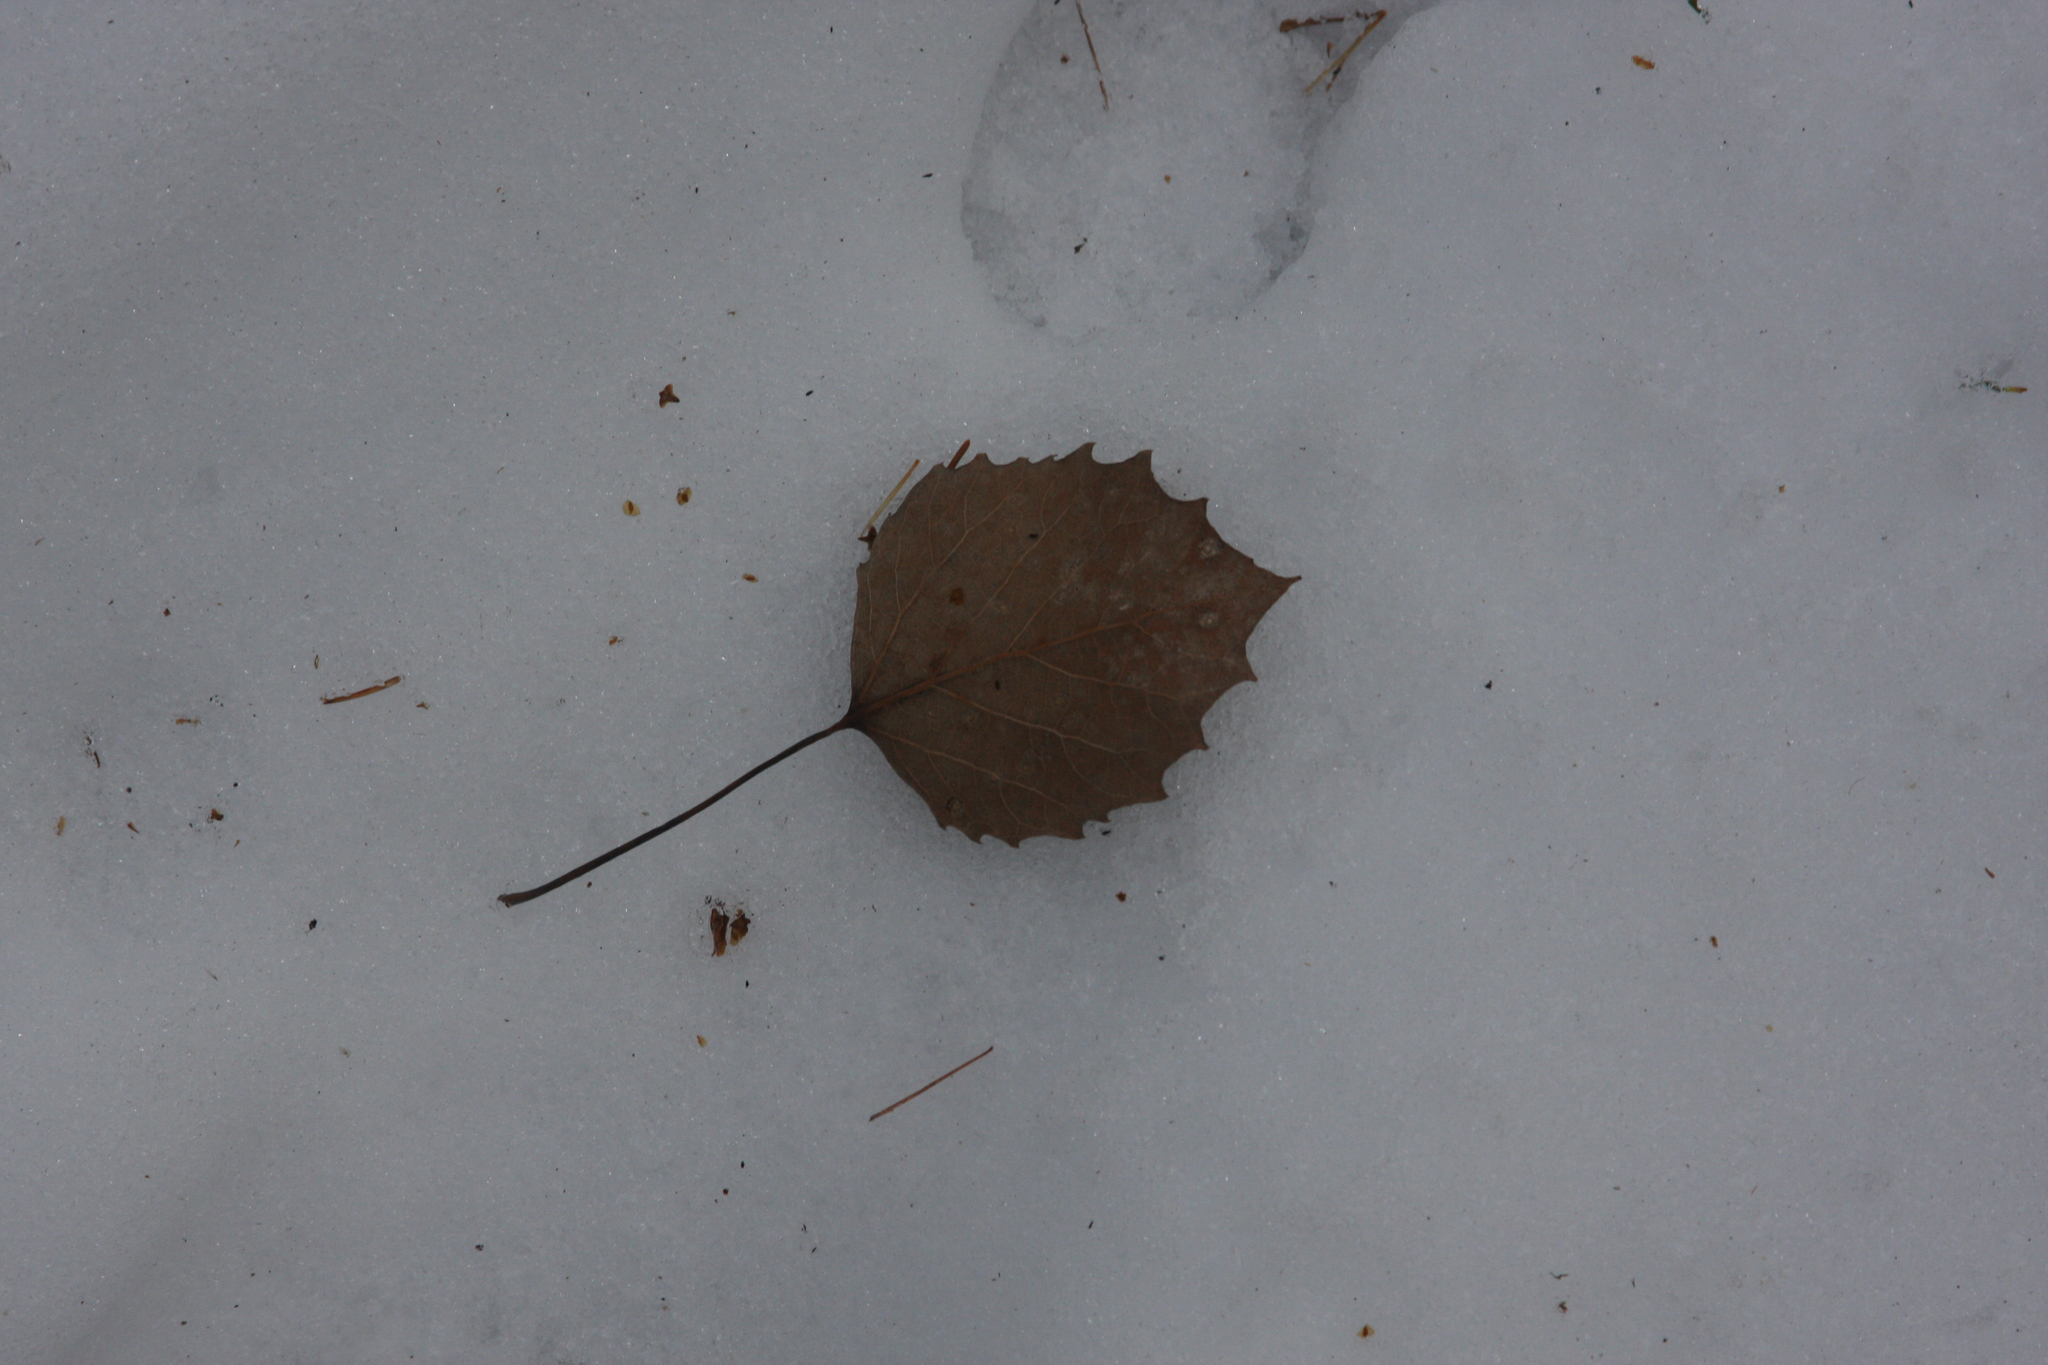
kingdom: Plantae
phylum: Tracheophyta
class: Magnoliopsida
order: Malpighiales
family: Salicaceae
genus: Populus
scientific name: Populus grandidentata
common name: Bigtooth aspen
